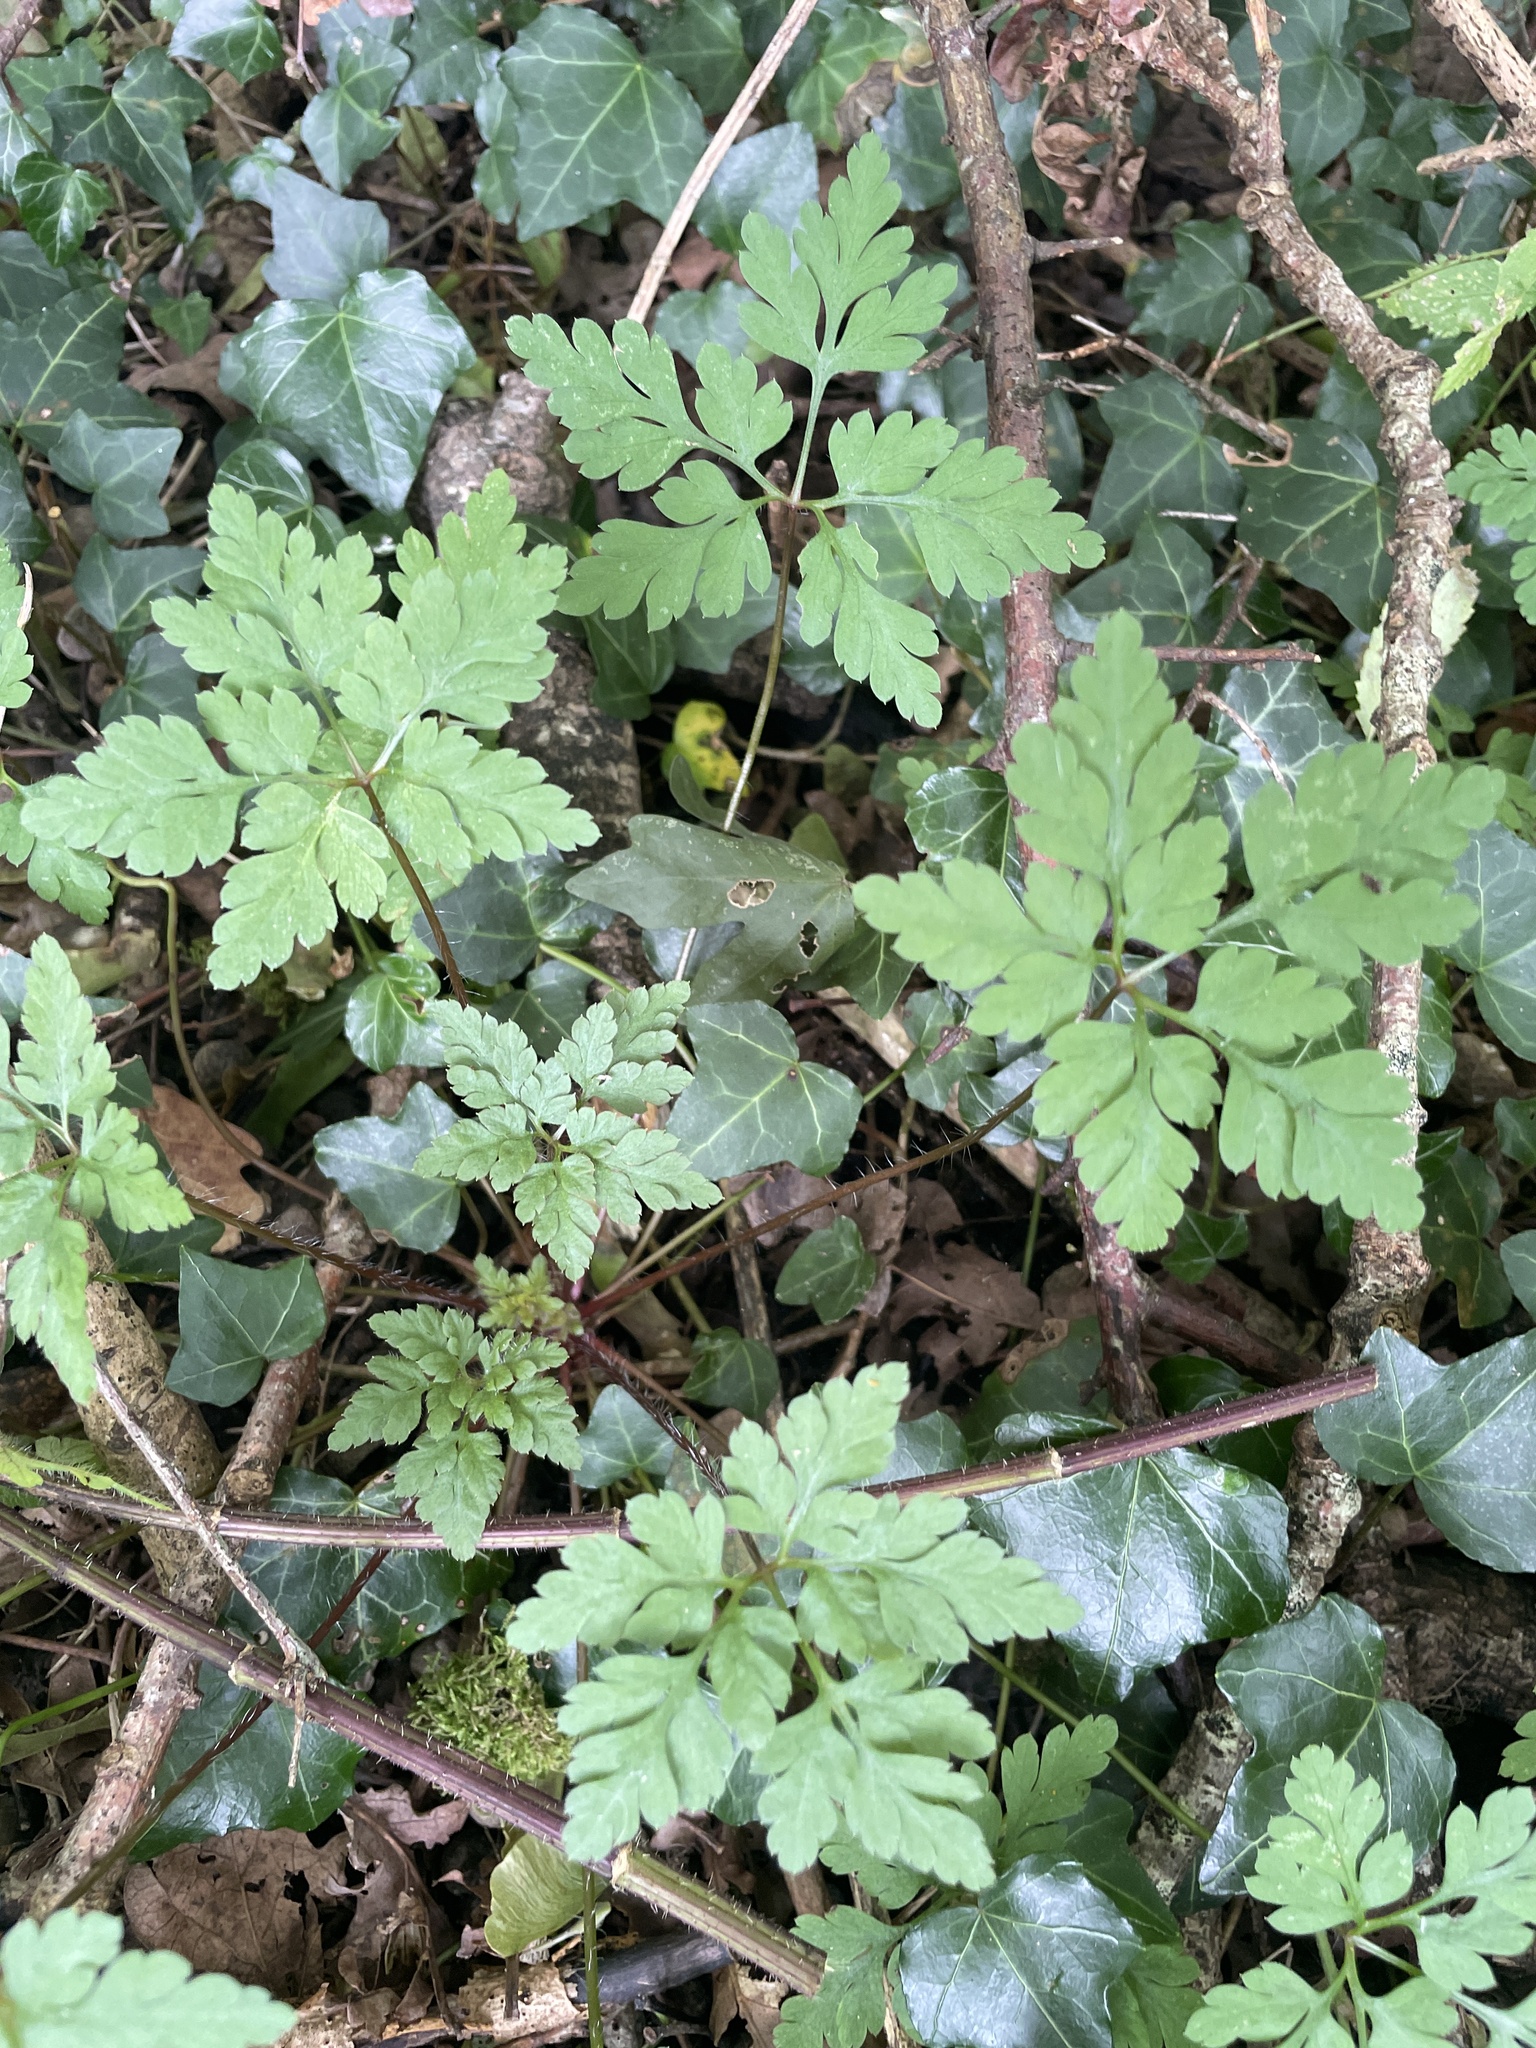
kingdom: Plantae
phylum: Tracheophyta
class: Magnoliopsida
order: Geraniales
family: Geraniaceae
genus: Geranium
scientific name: Geranium robertianum
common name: Herb-robert
